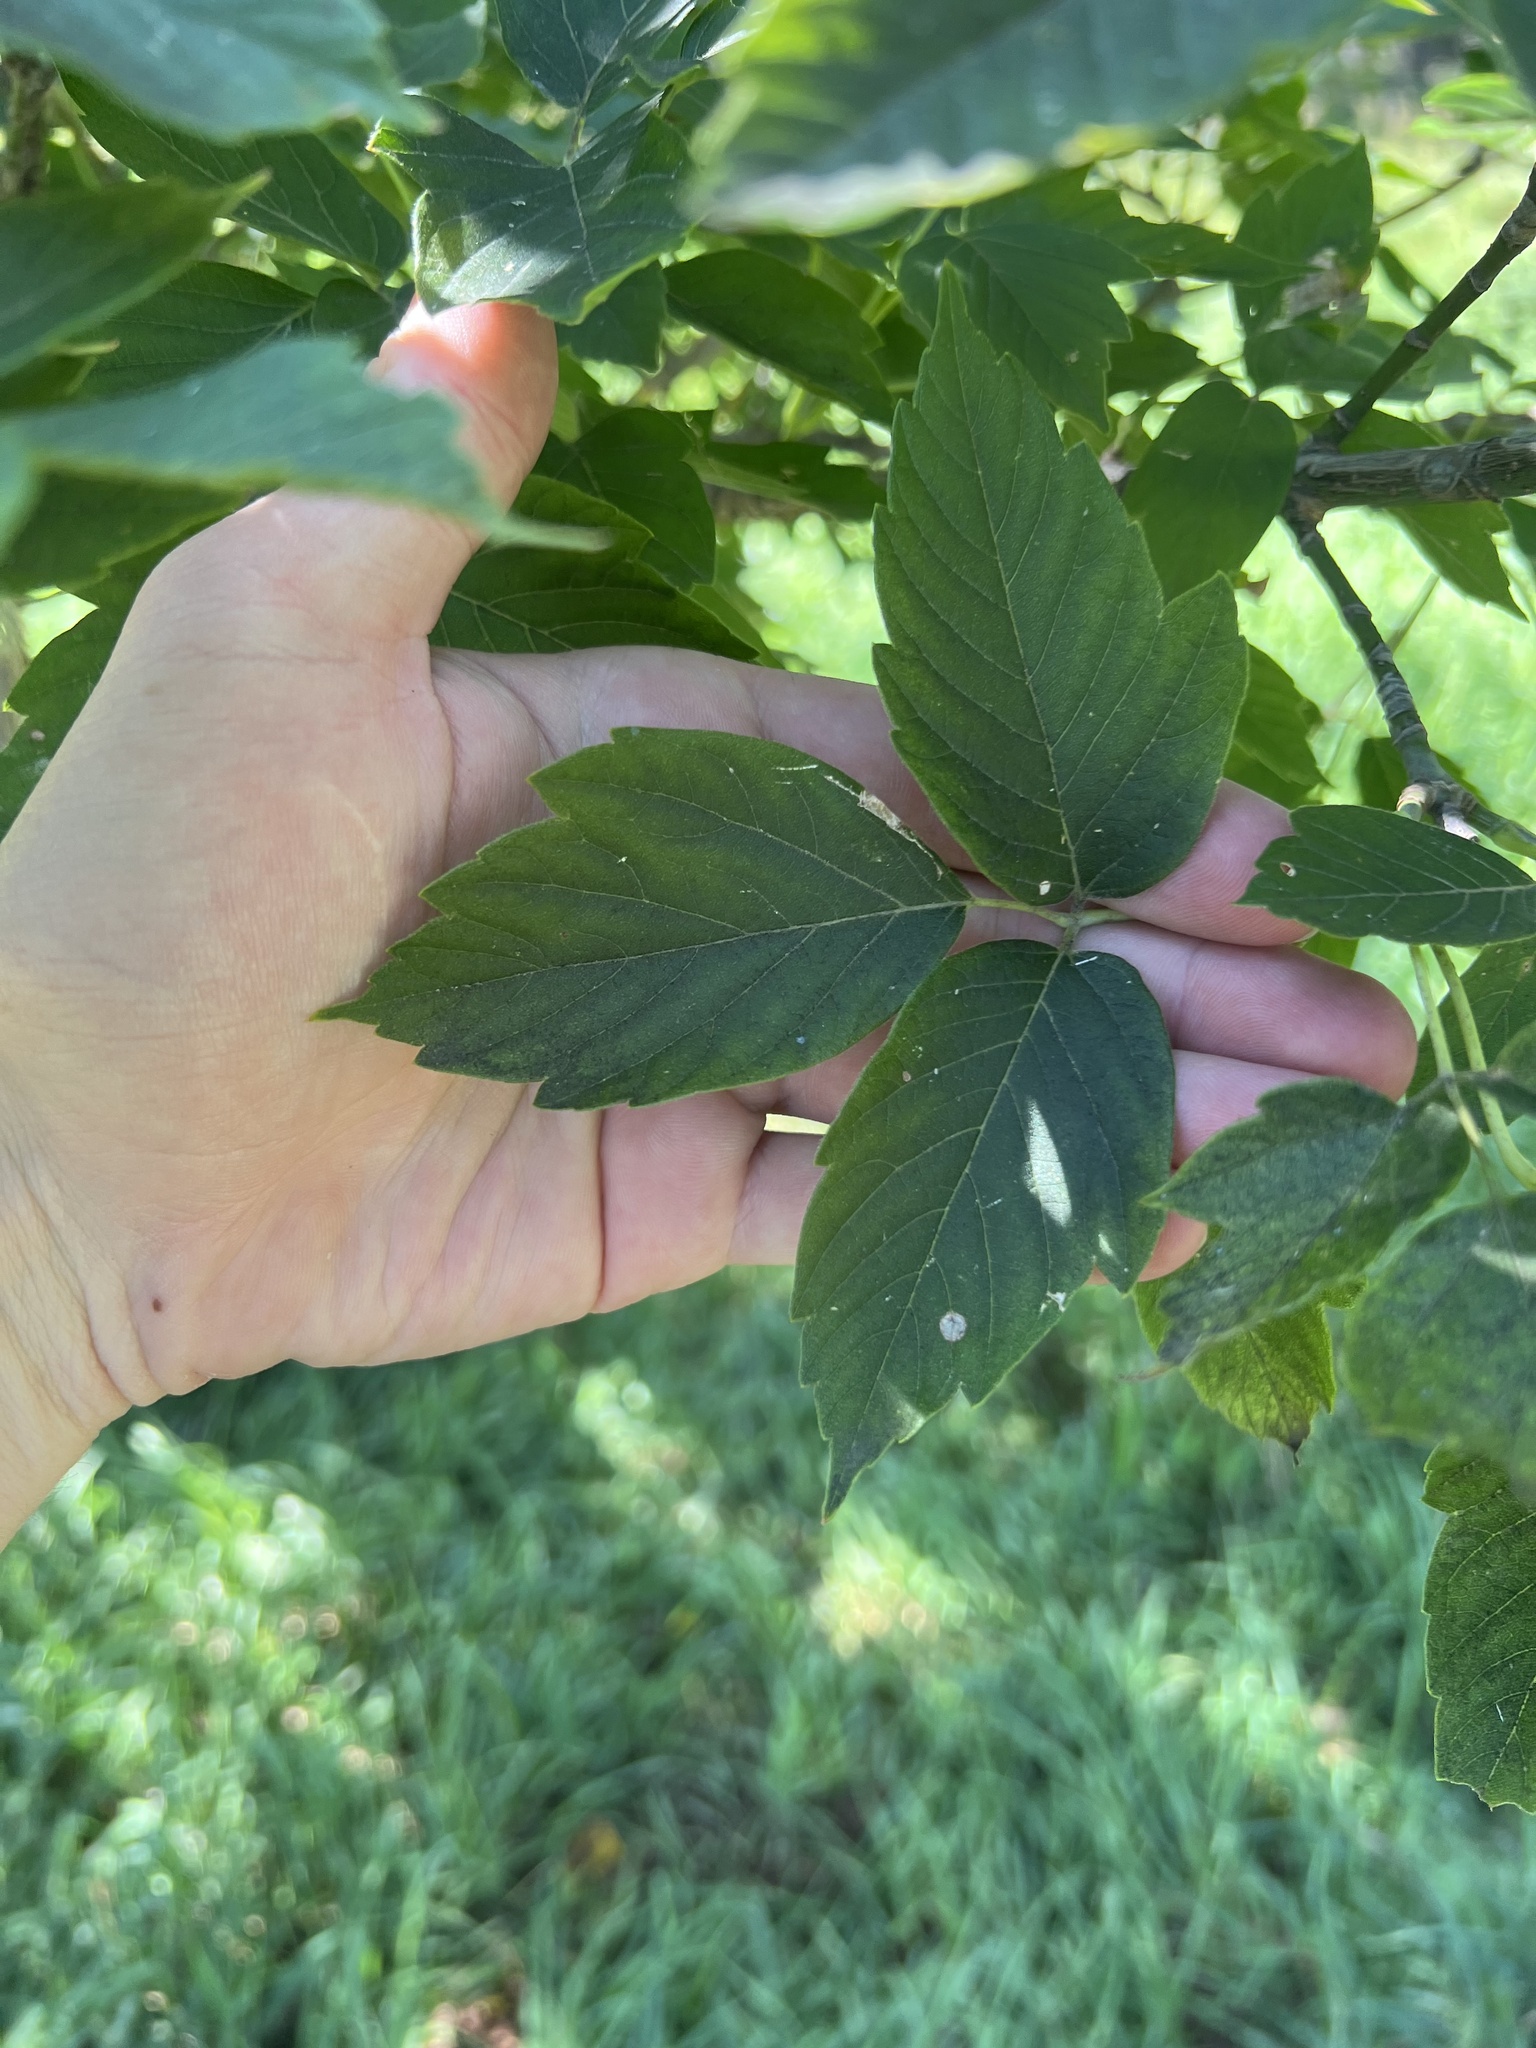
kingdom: Plantae
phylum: Tracheophyta
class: Magnoliopsida
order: Sapindales
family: Sapindaceae
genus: Acer
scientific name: Acer negundo
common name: Ashleaf maple
